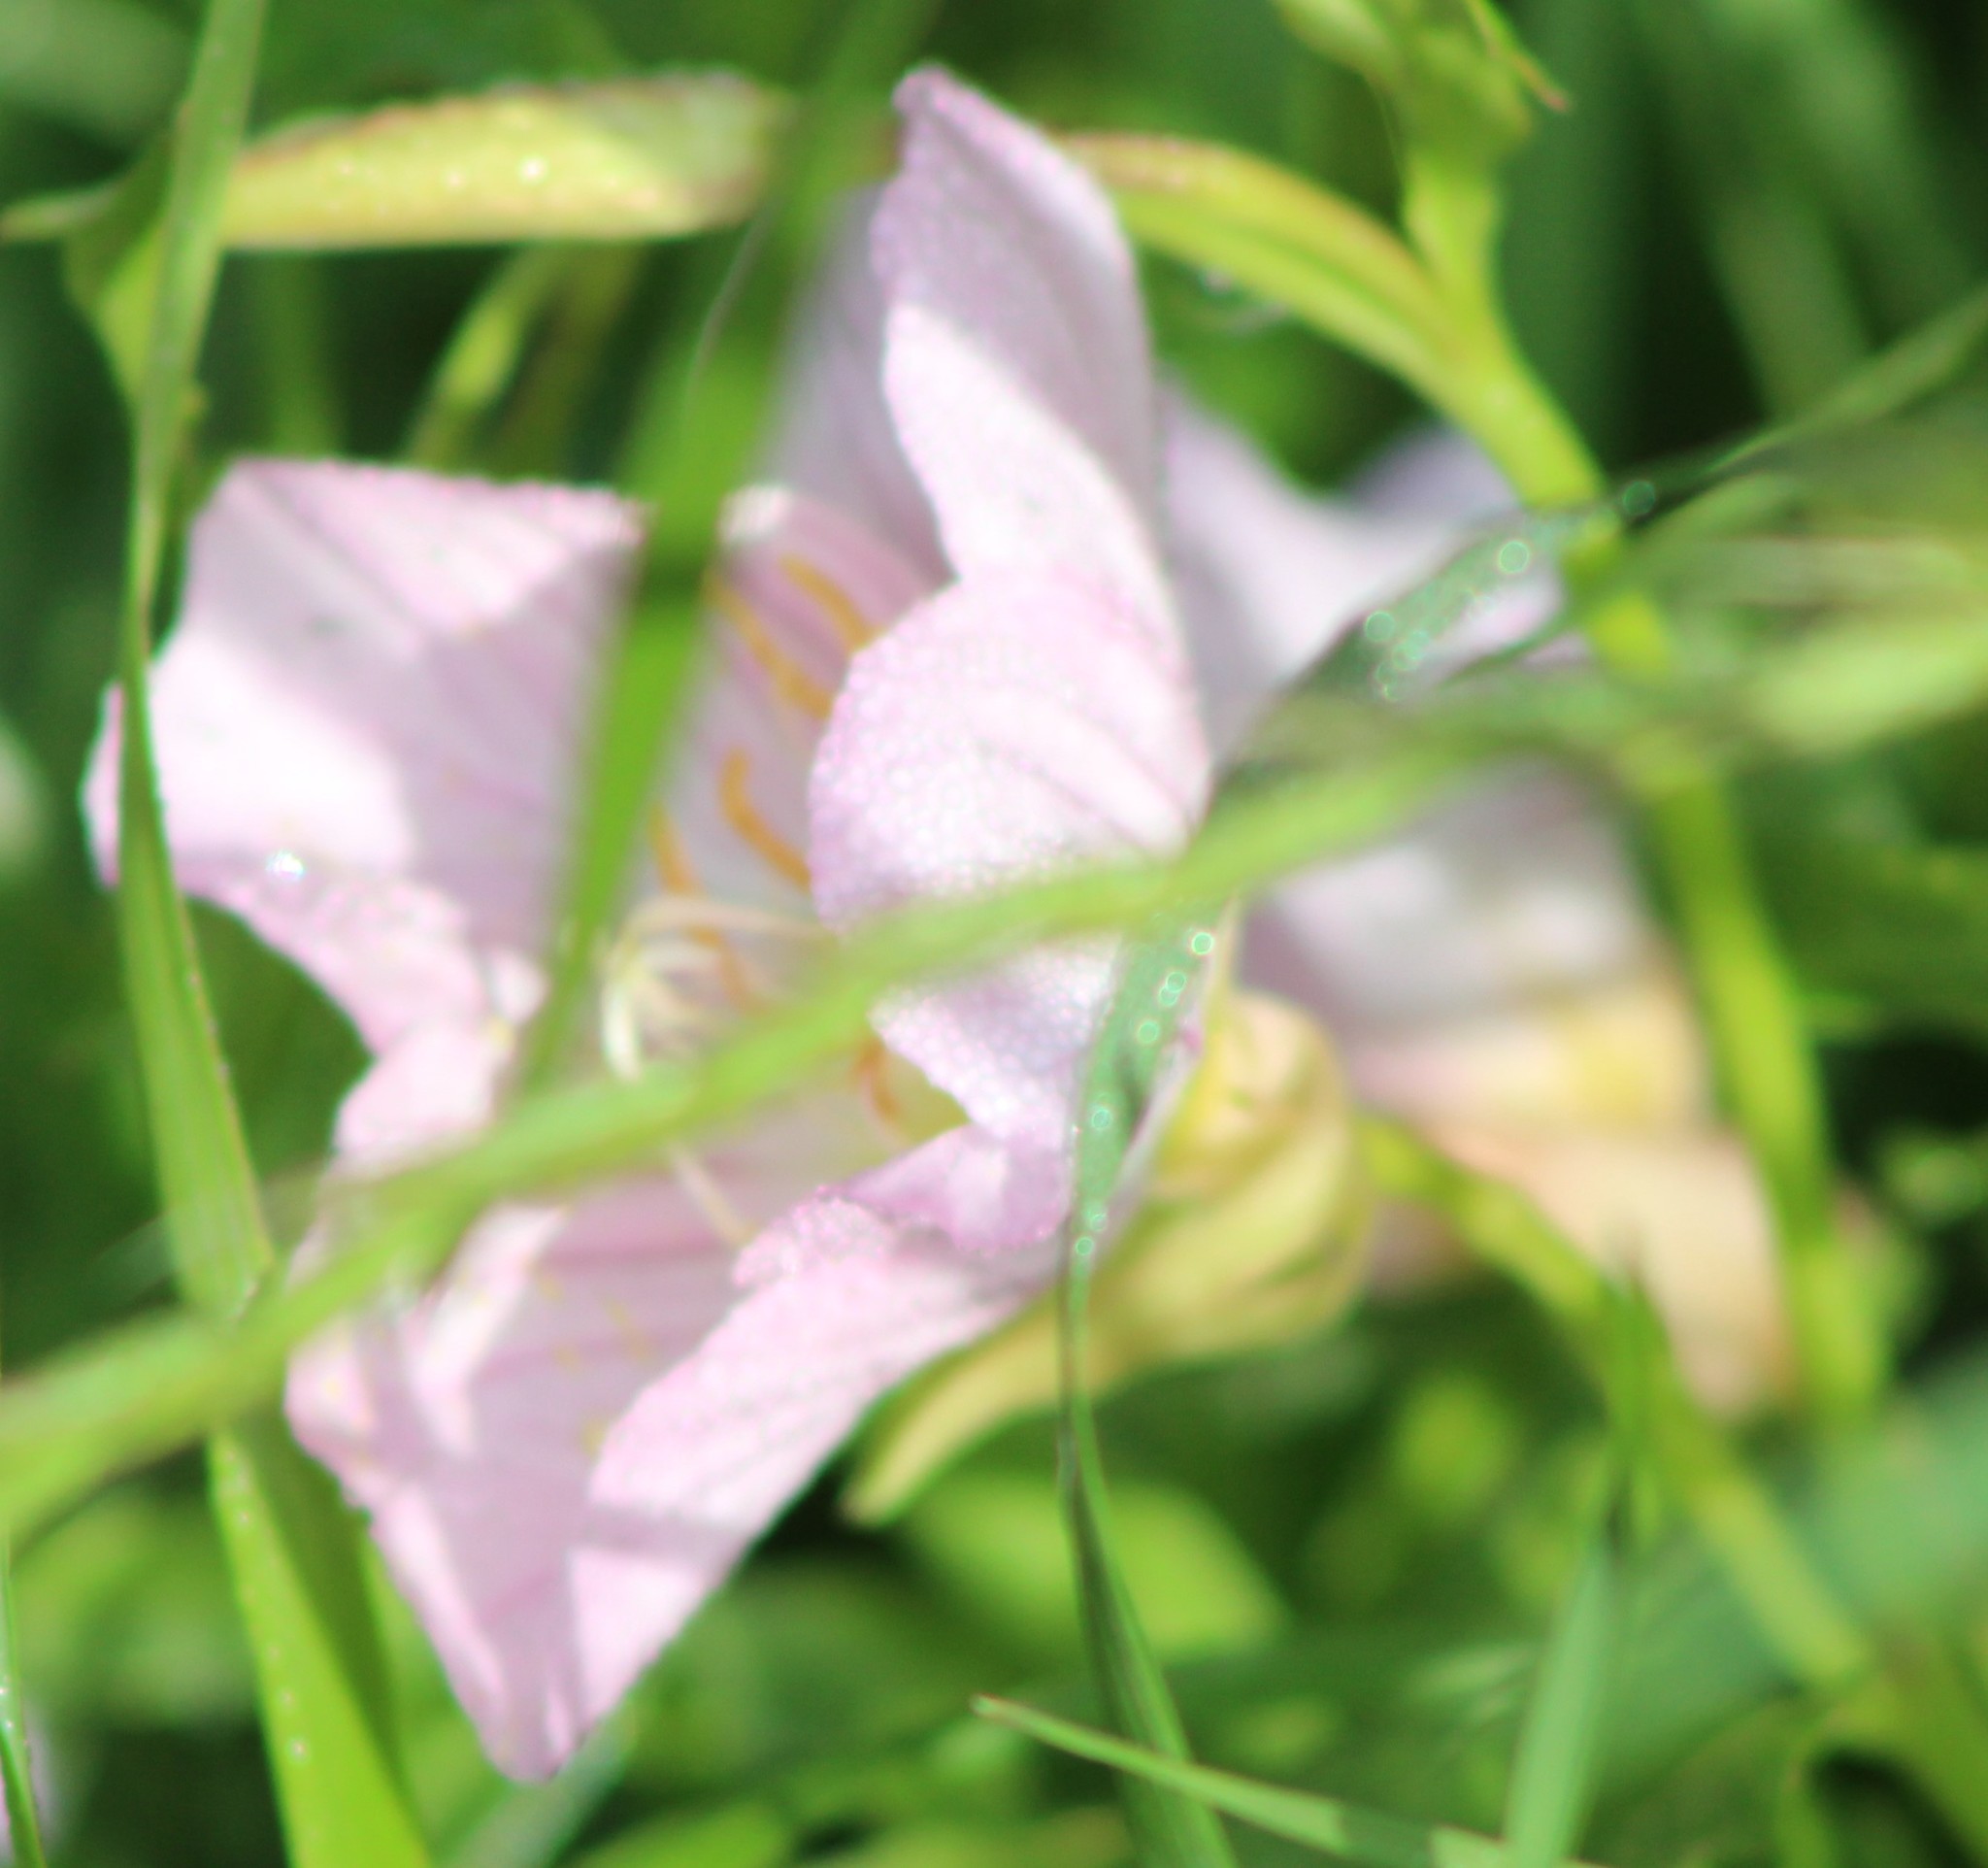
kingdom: Plantae
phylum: Tracheophyta
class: Magnoliopsida
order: Myrtales
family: Onagraceae
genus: Oenothera
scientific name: Oenothera speciosa
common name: White evening-primrose
